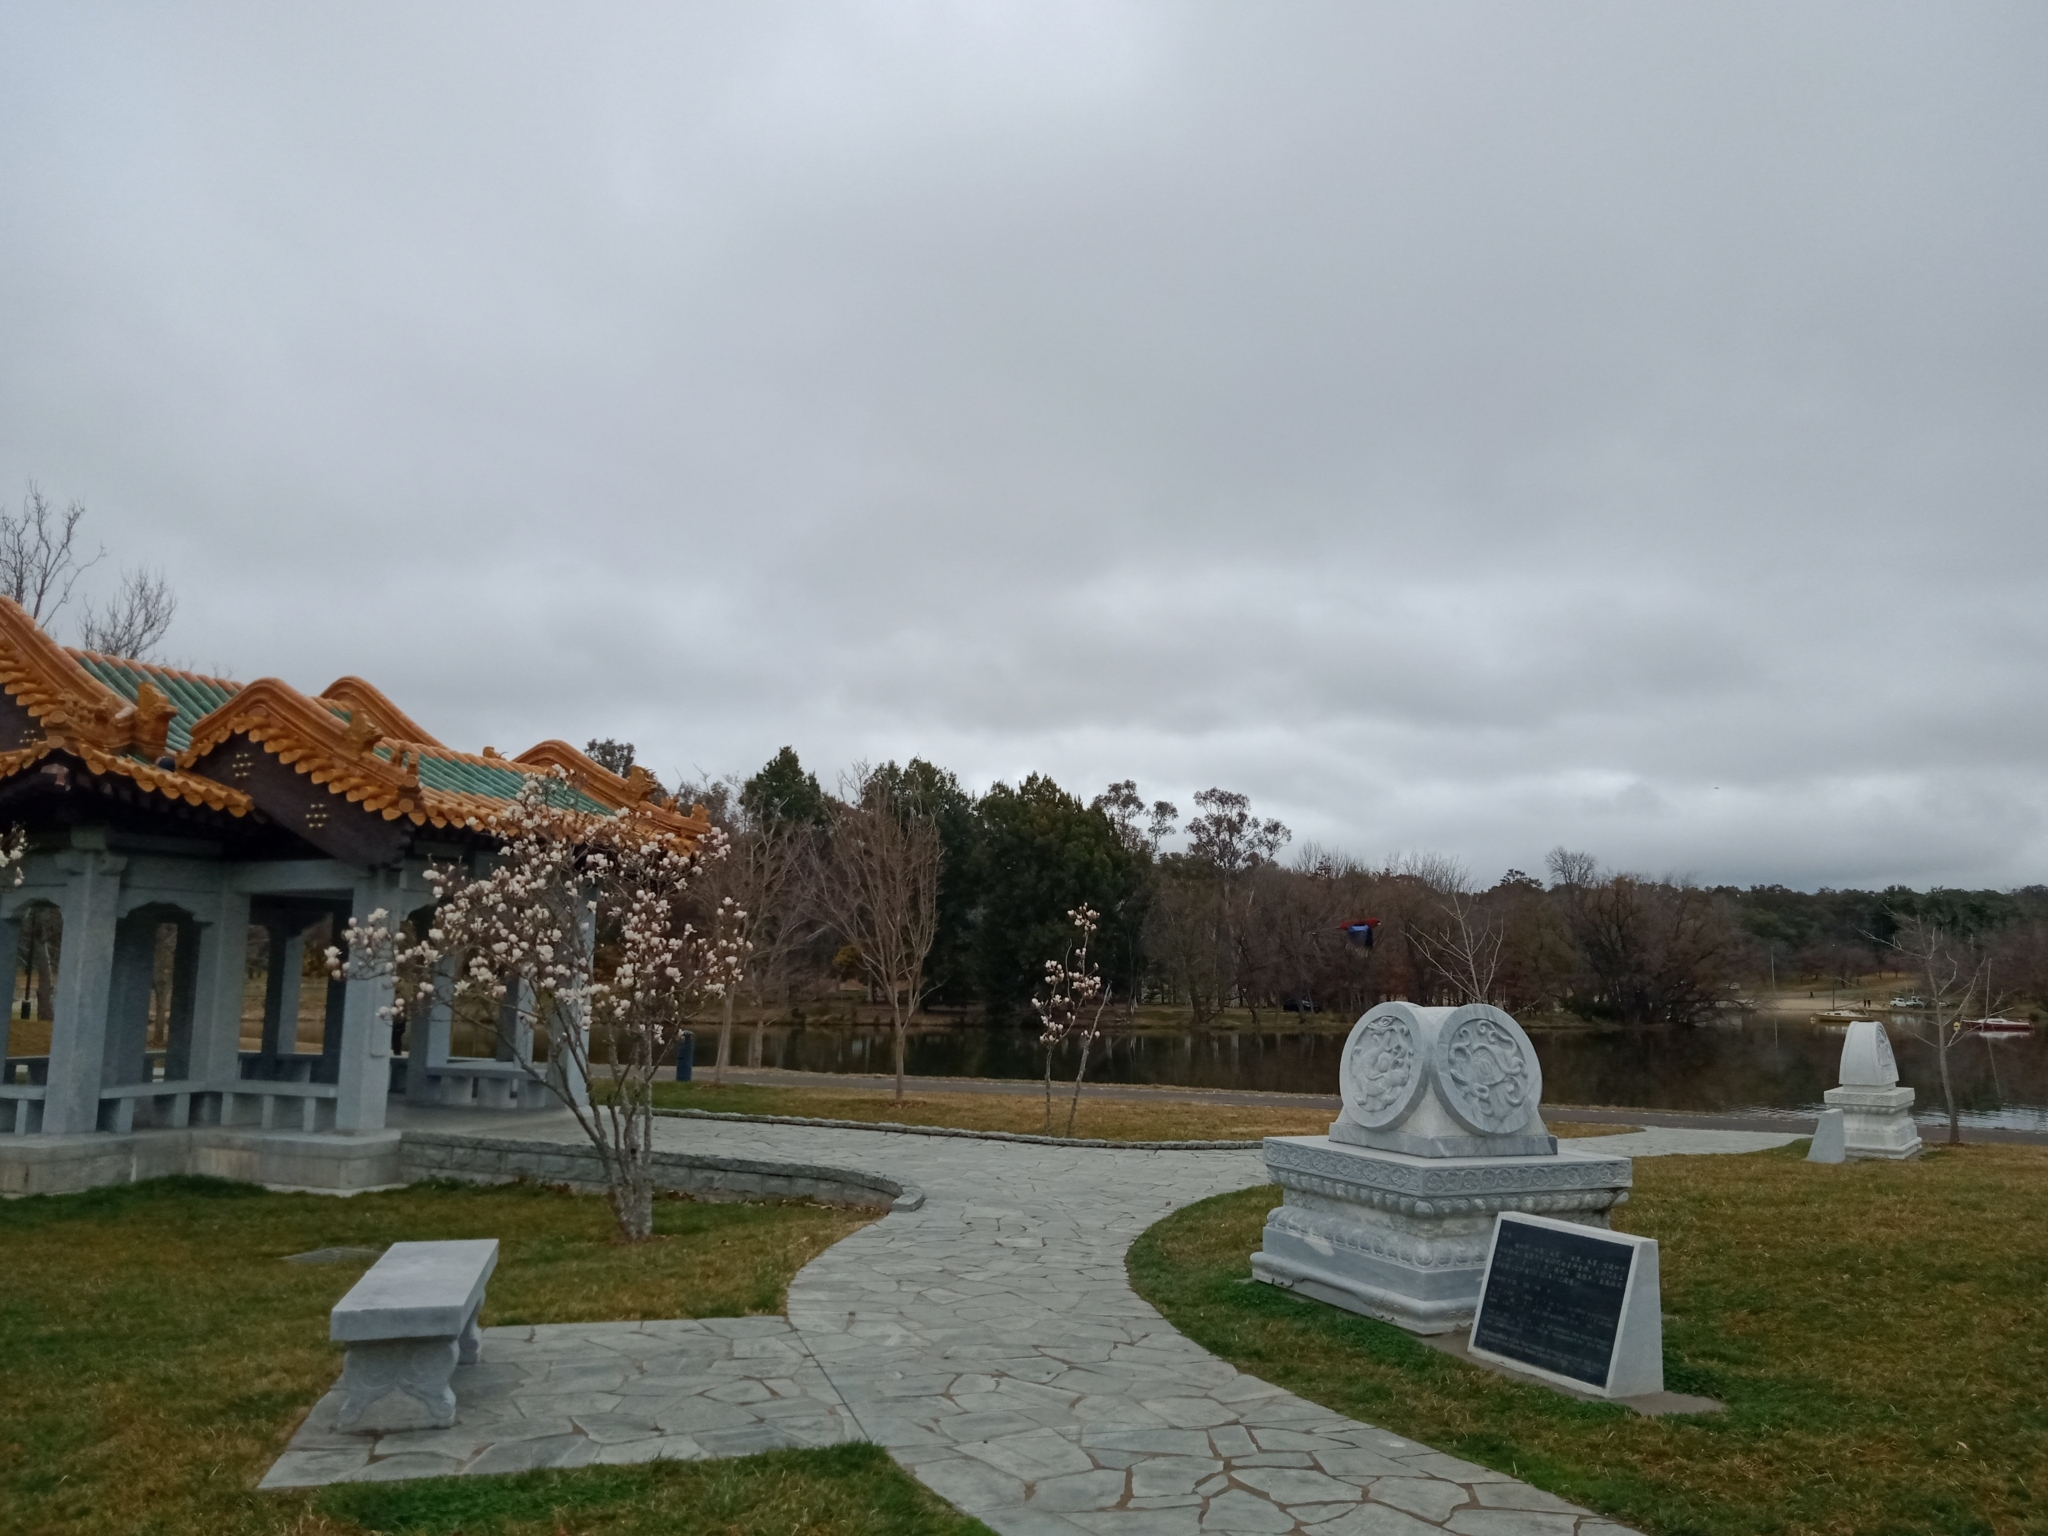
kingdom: Animalia
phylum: Chordata
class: Aves
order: Psittaciformes
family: Psittacidae
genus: Platycercus
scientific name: Platycercus elegans
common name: Crimson rosella
